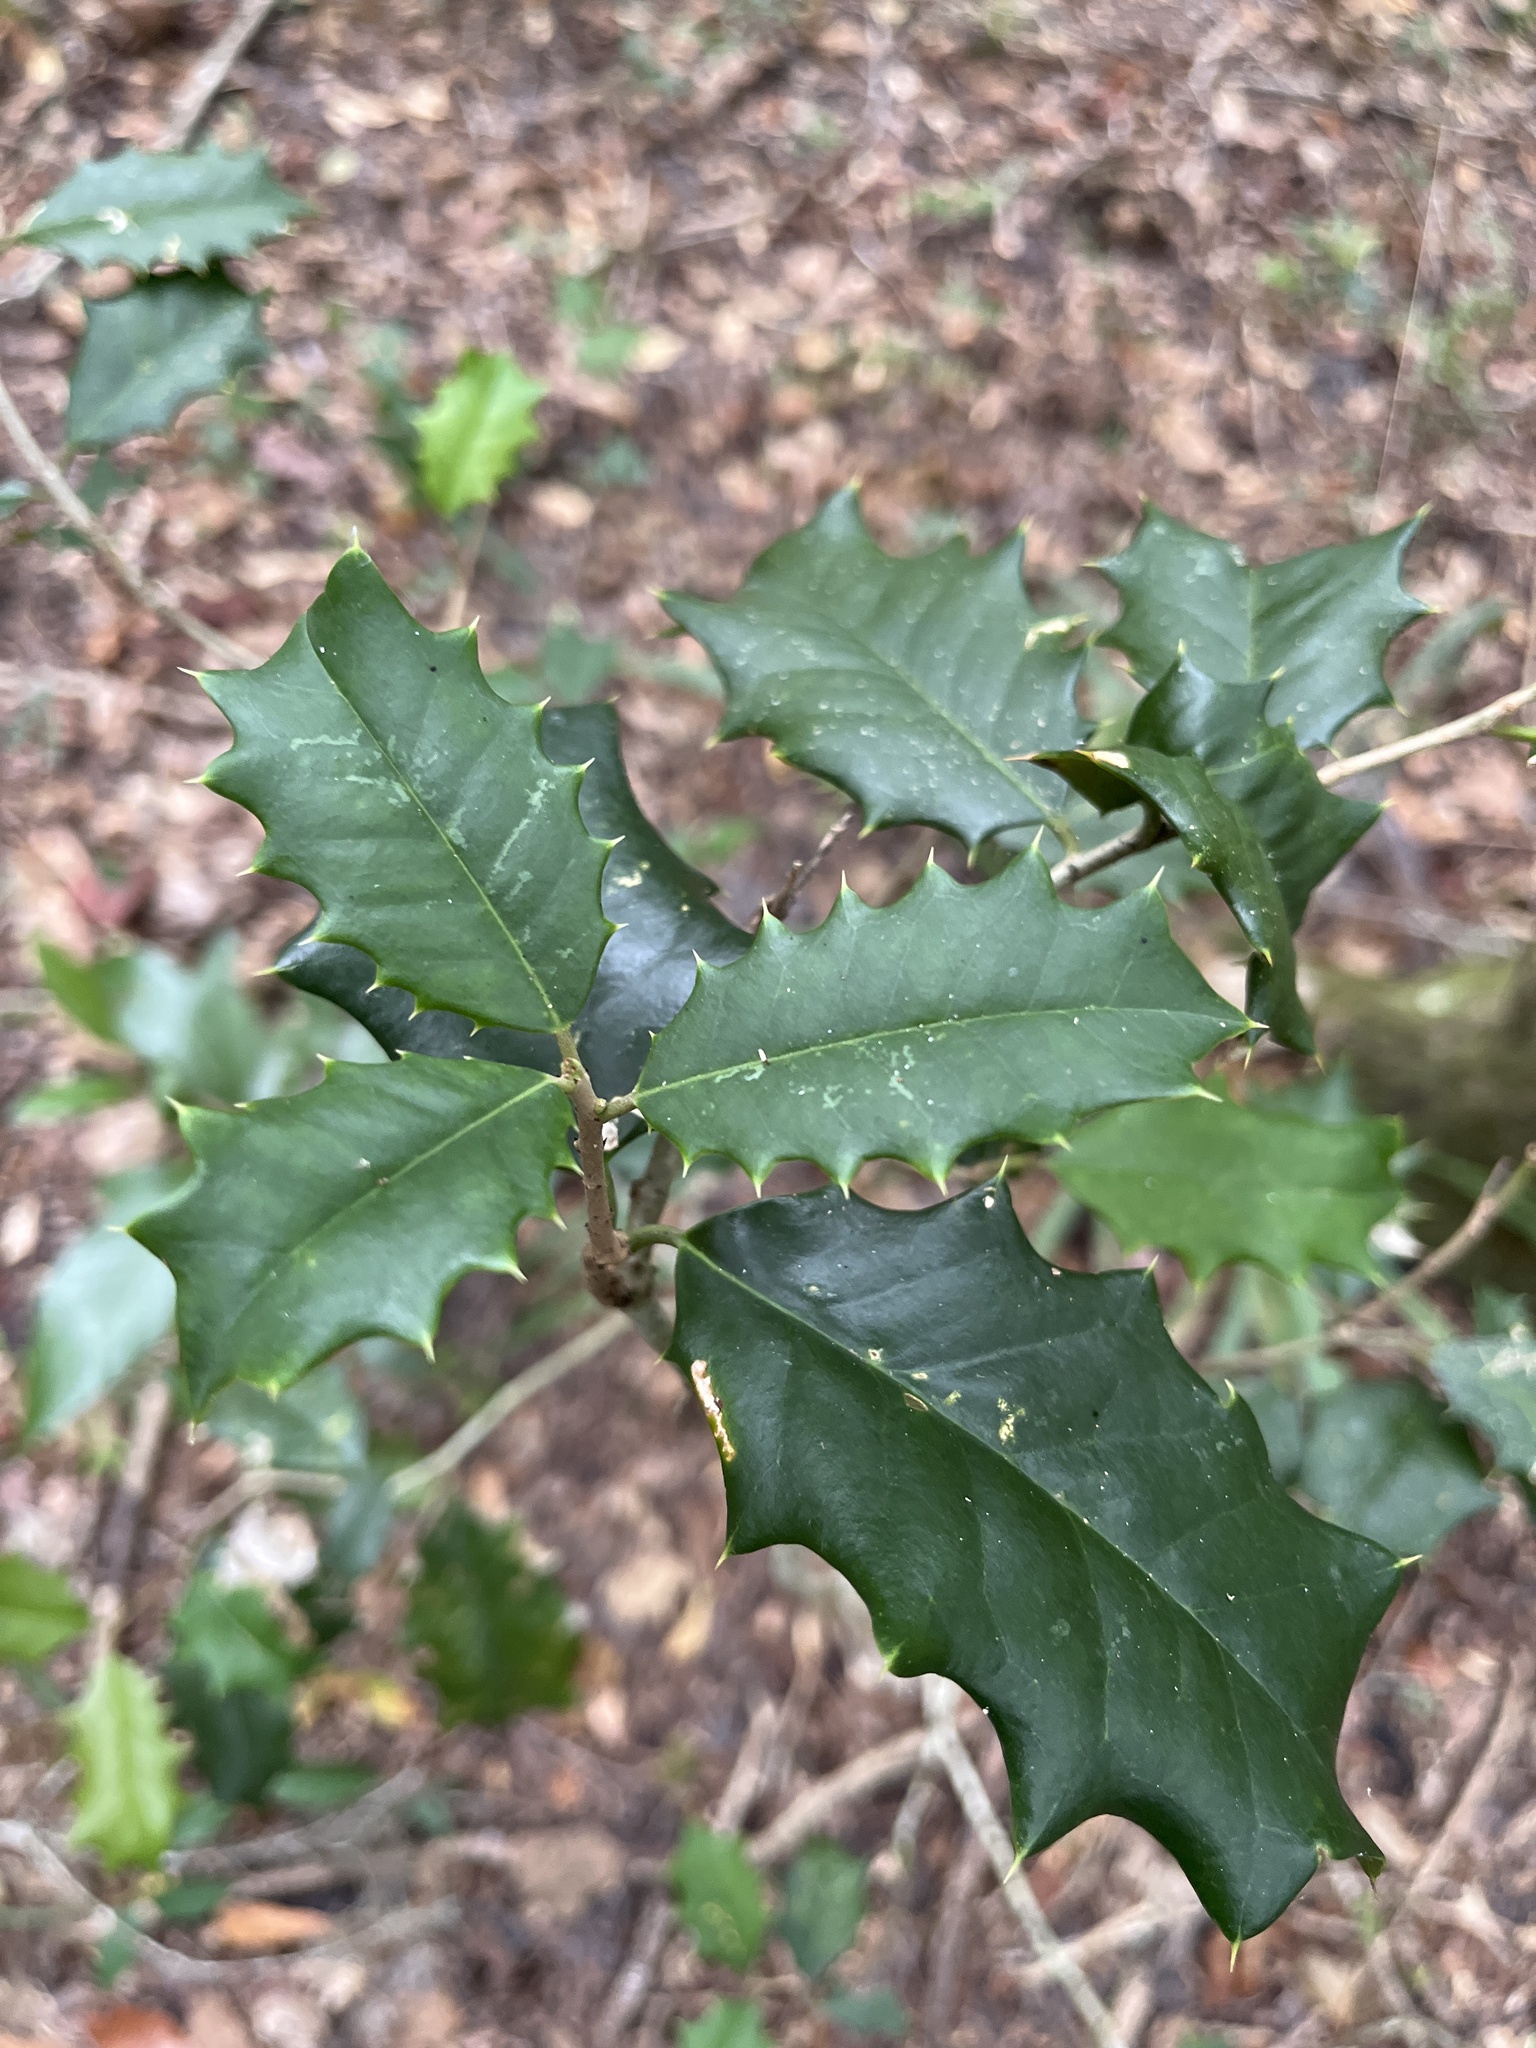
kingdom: Plantae
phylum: Tracheophyta
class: Magnoliopsida
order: Aquifoliales
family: Aquifoliaceae
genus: Ilex
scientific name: Ilex opaca
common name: American holly
